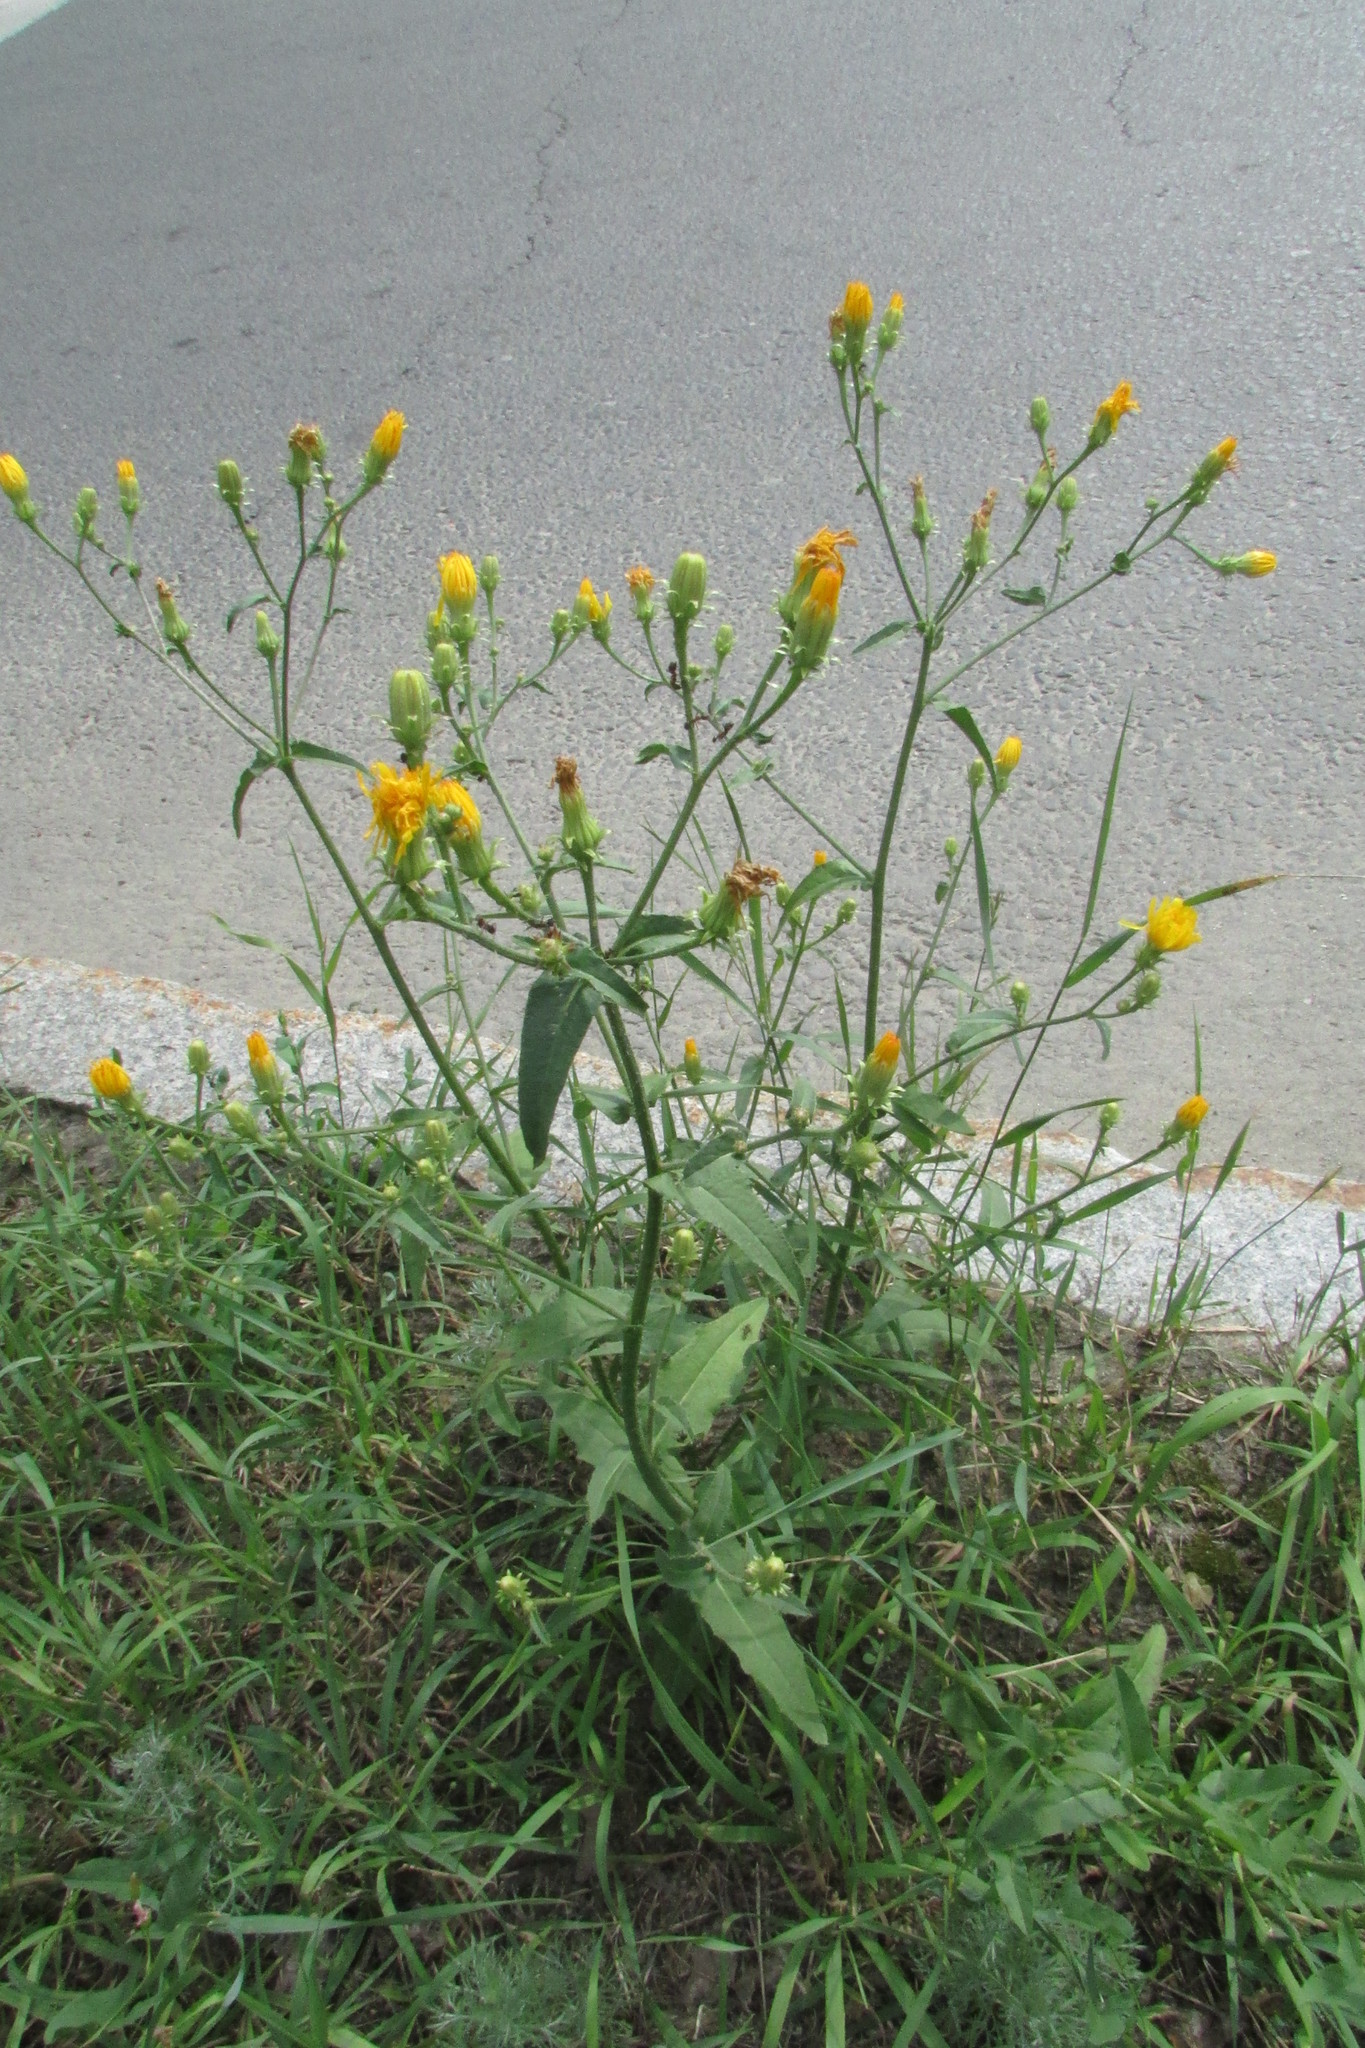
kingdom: Plantae
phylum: Tracheophyta
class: Magnoliopsida
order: Asterales
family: Asteraceae
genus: Picris
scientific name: Picris hieracioides
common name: Hawkweed oxtongue
